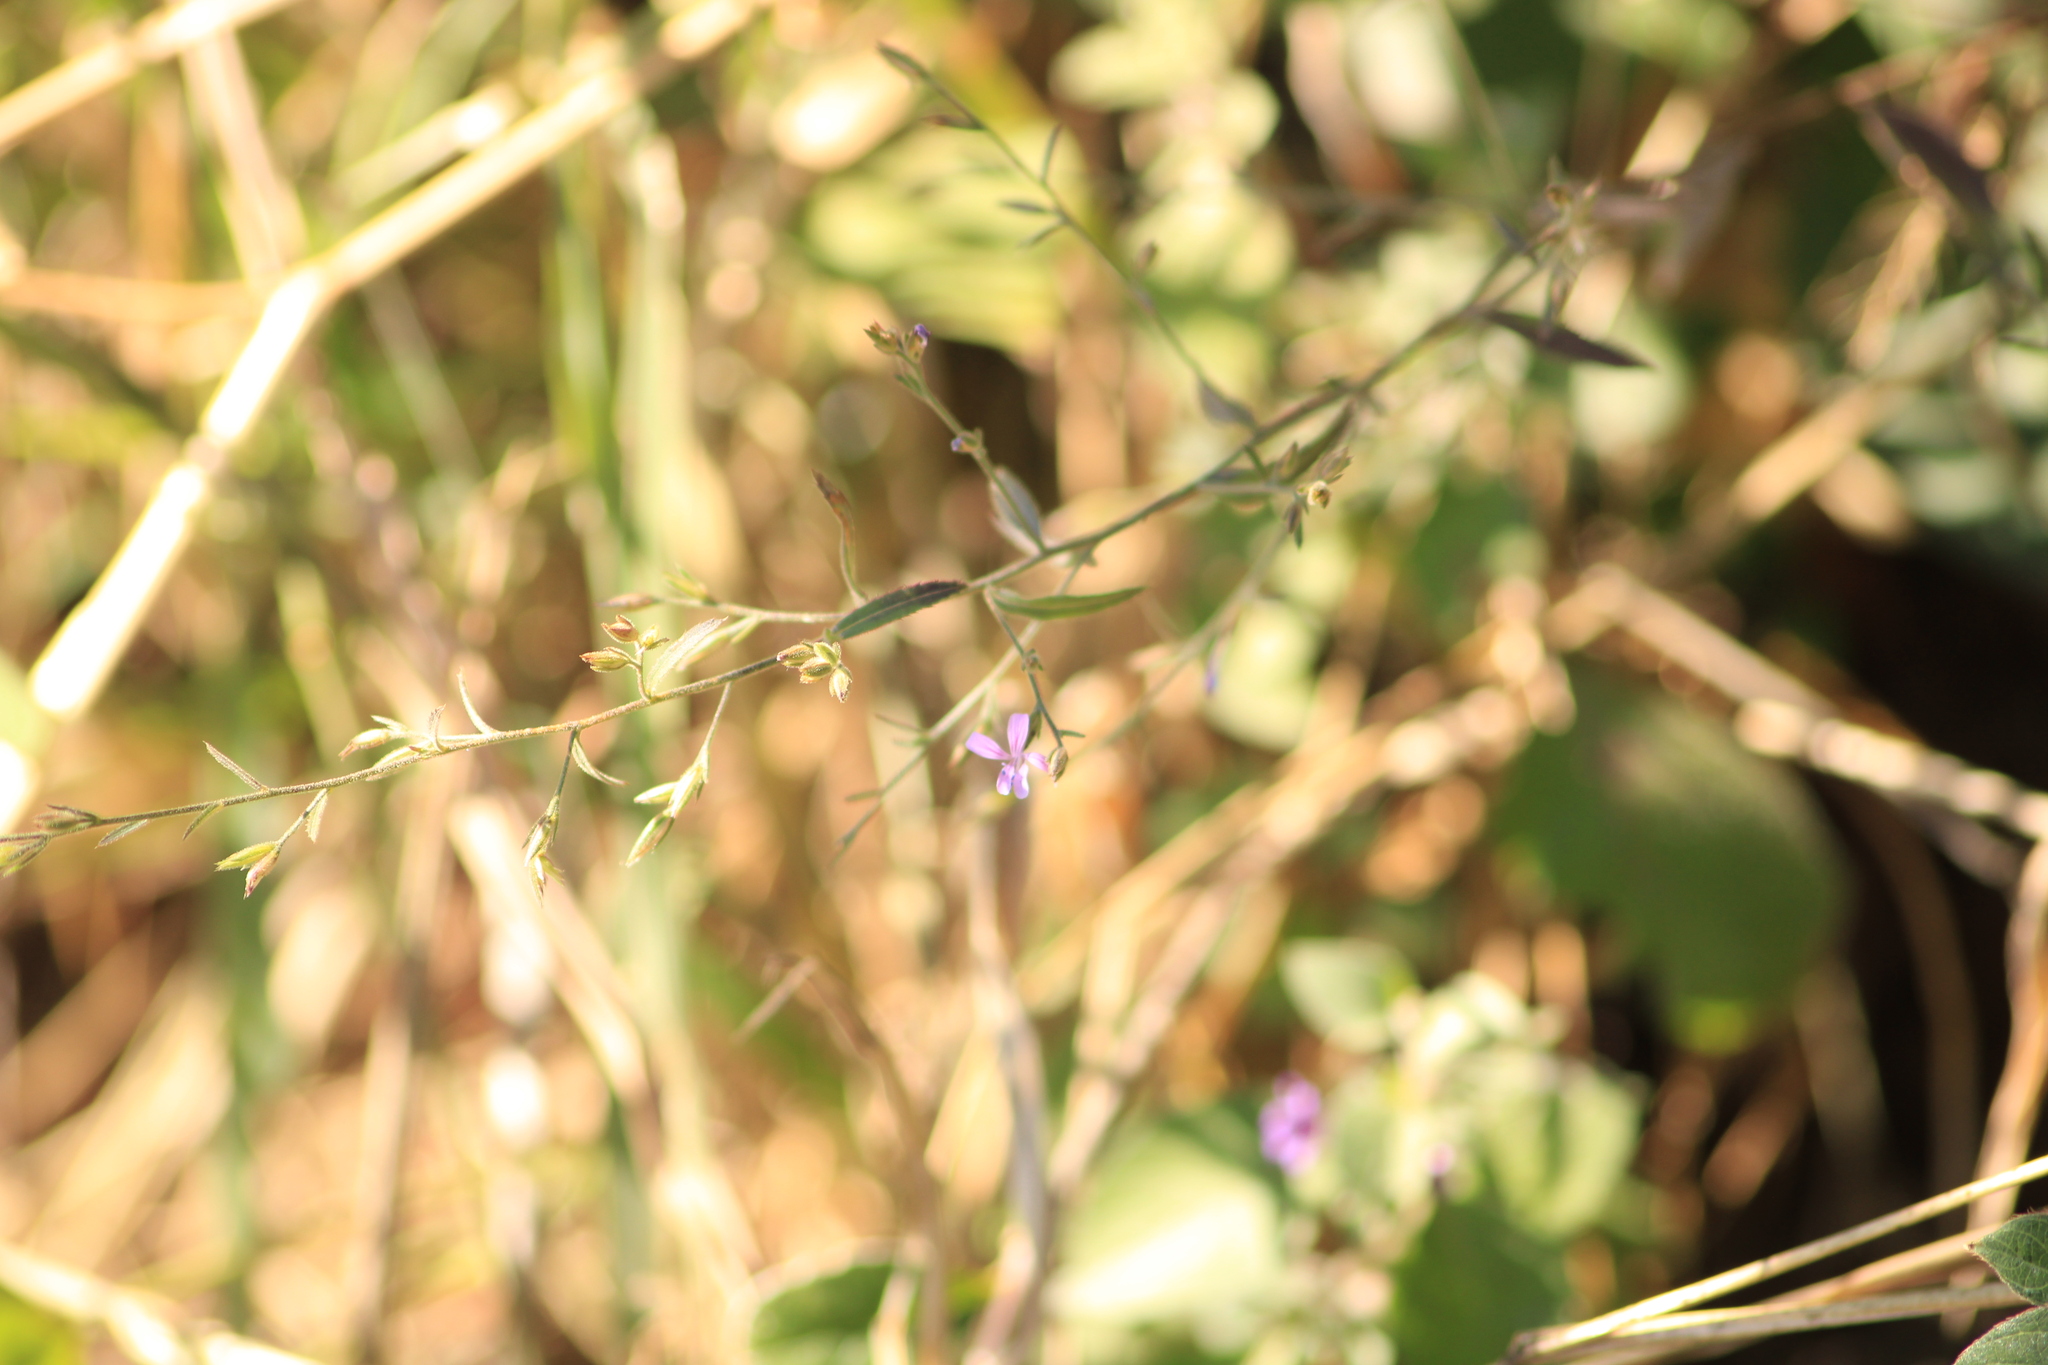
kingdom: Plantae
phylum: Tracheophyta
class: Magnoliopsida
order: Ericales
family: Polemoniaceae
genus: Loeselia
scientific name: Loeselia glandulosa
